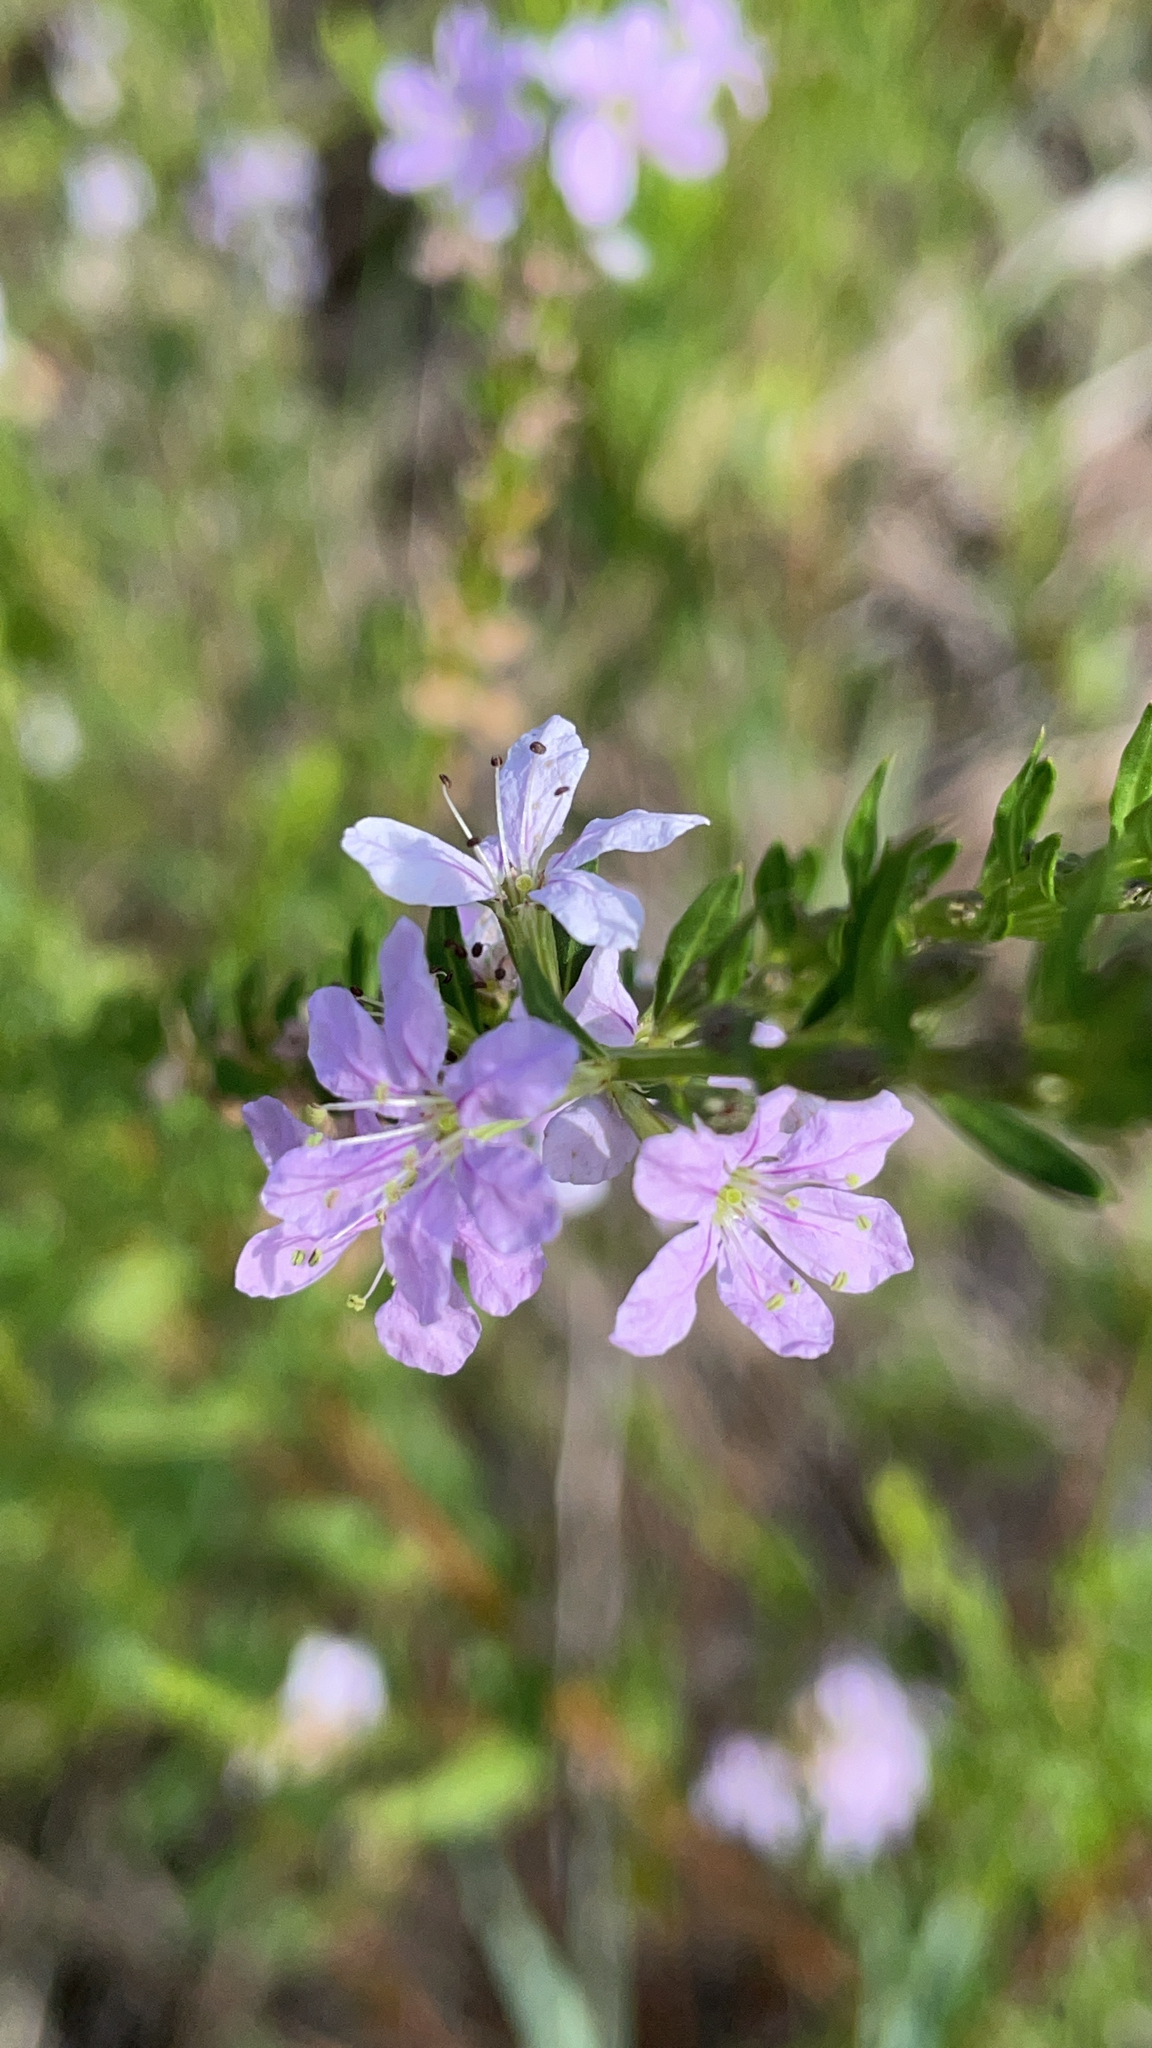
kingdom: Plantae
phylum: Tracheophyta
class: Magnoliopsida
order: Myrtales
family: Lythraceae
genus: Lythrum
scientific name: Lythrum alatum
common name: Winged loosestrife
